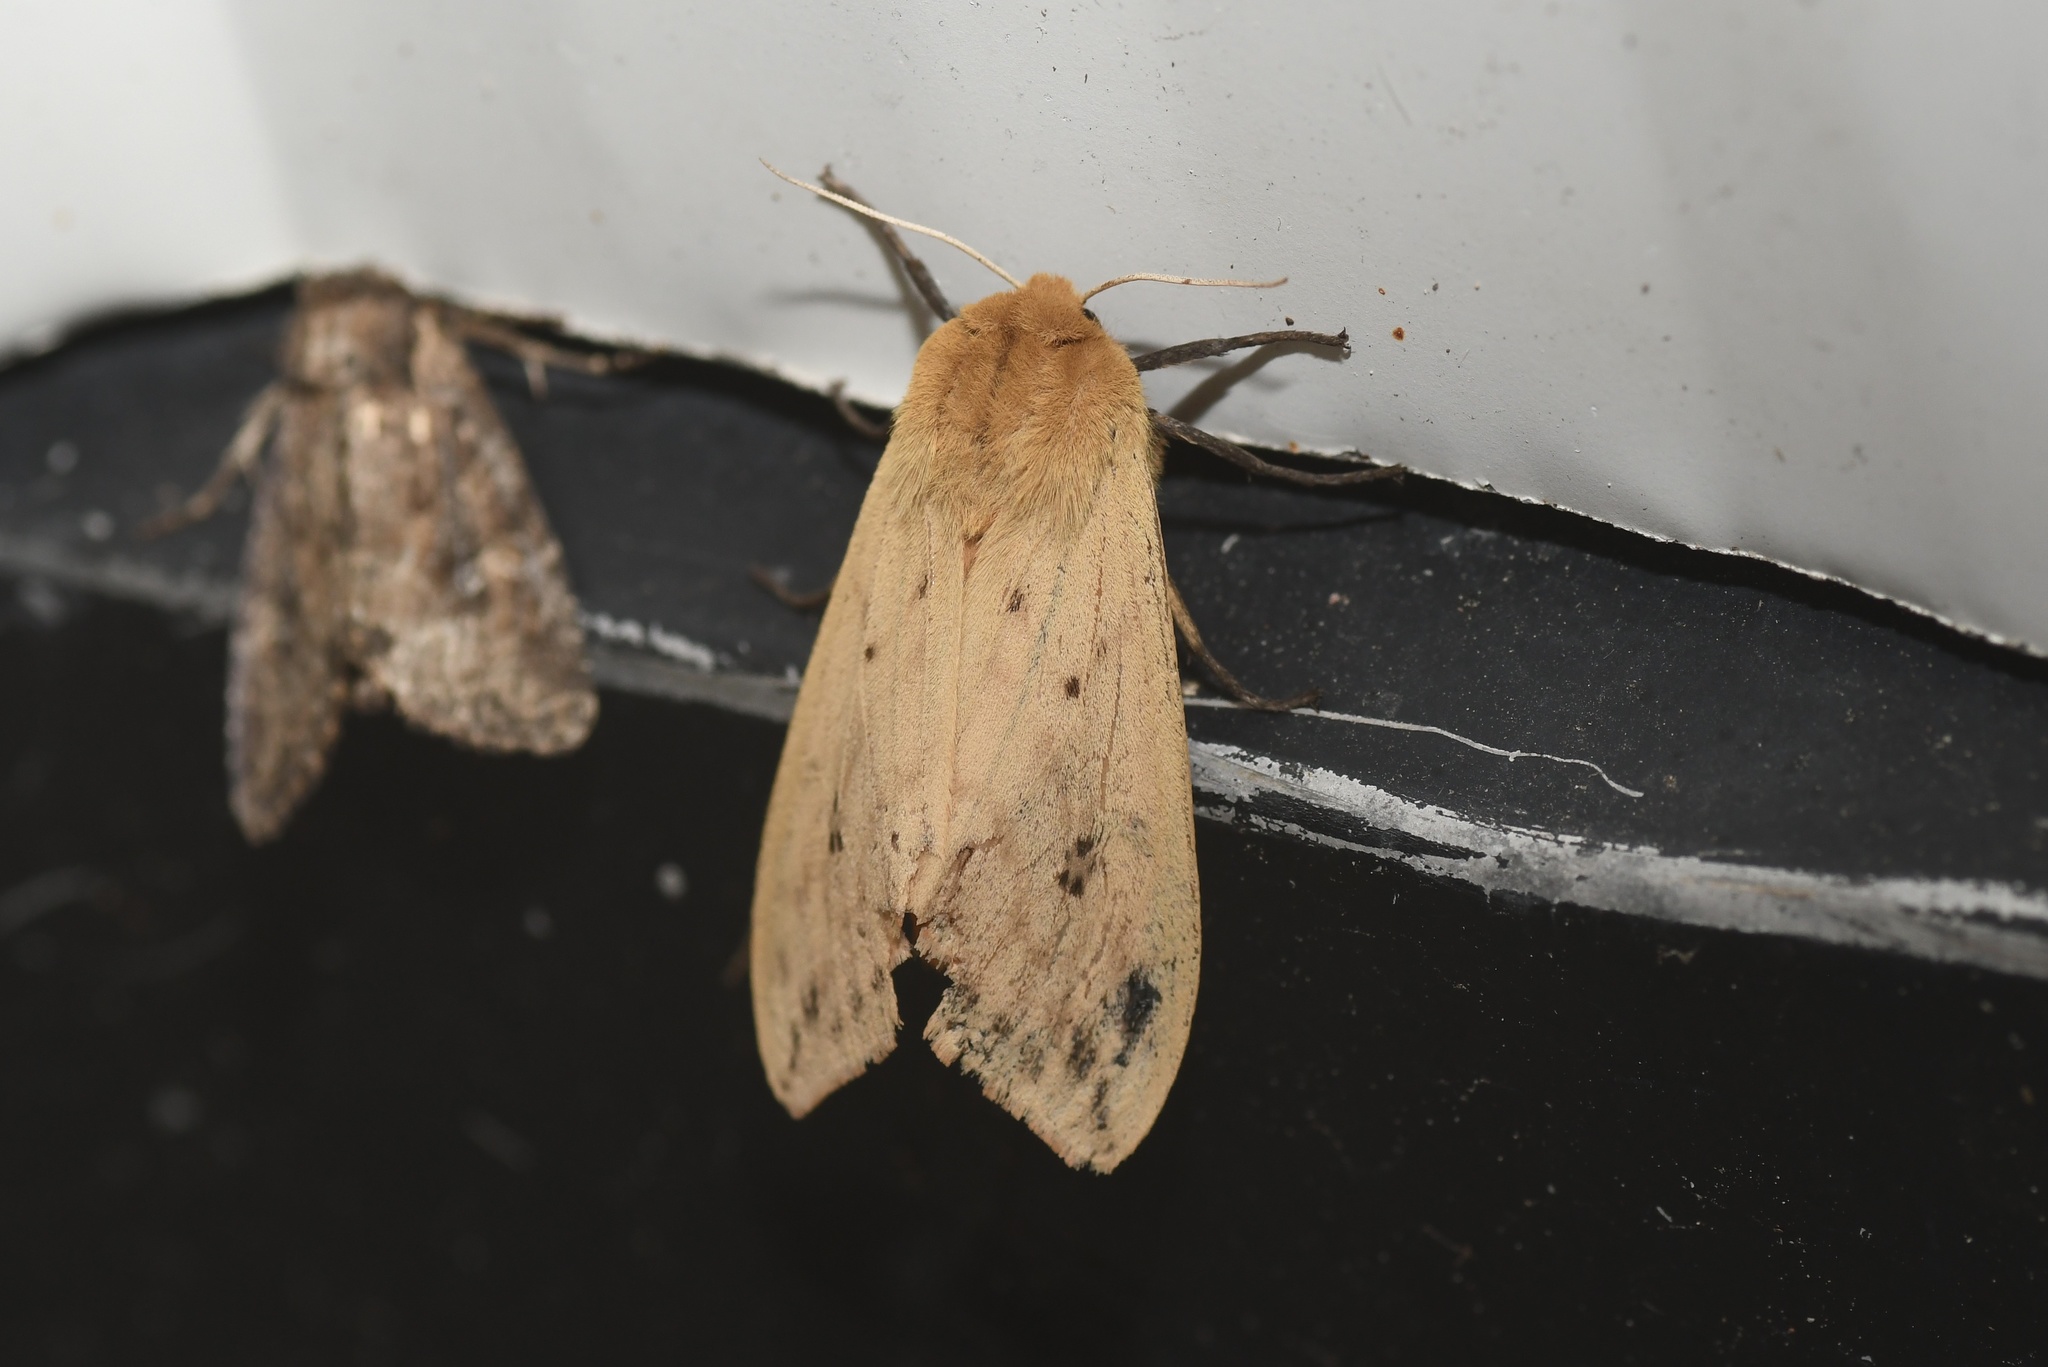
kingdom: Animalia
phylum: Arthropoda
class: Insecta
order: Lepidoptera
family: Erebidae
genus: Pyrrharctia
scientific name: Pyrrharctia isabella
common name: Isabella tiger moth
